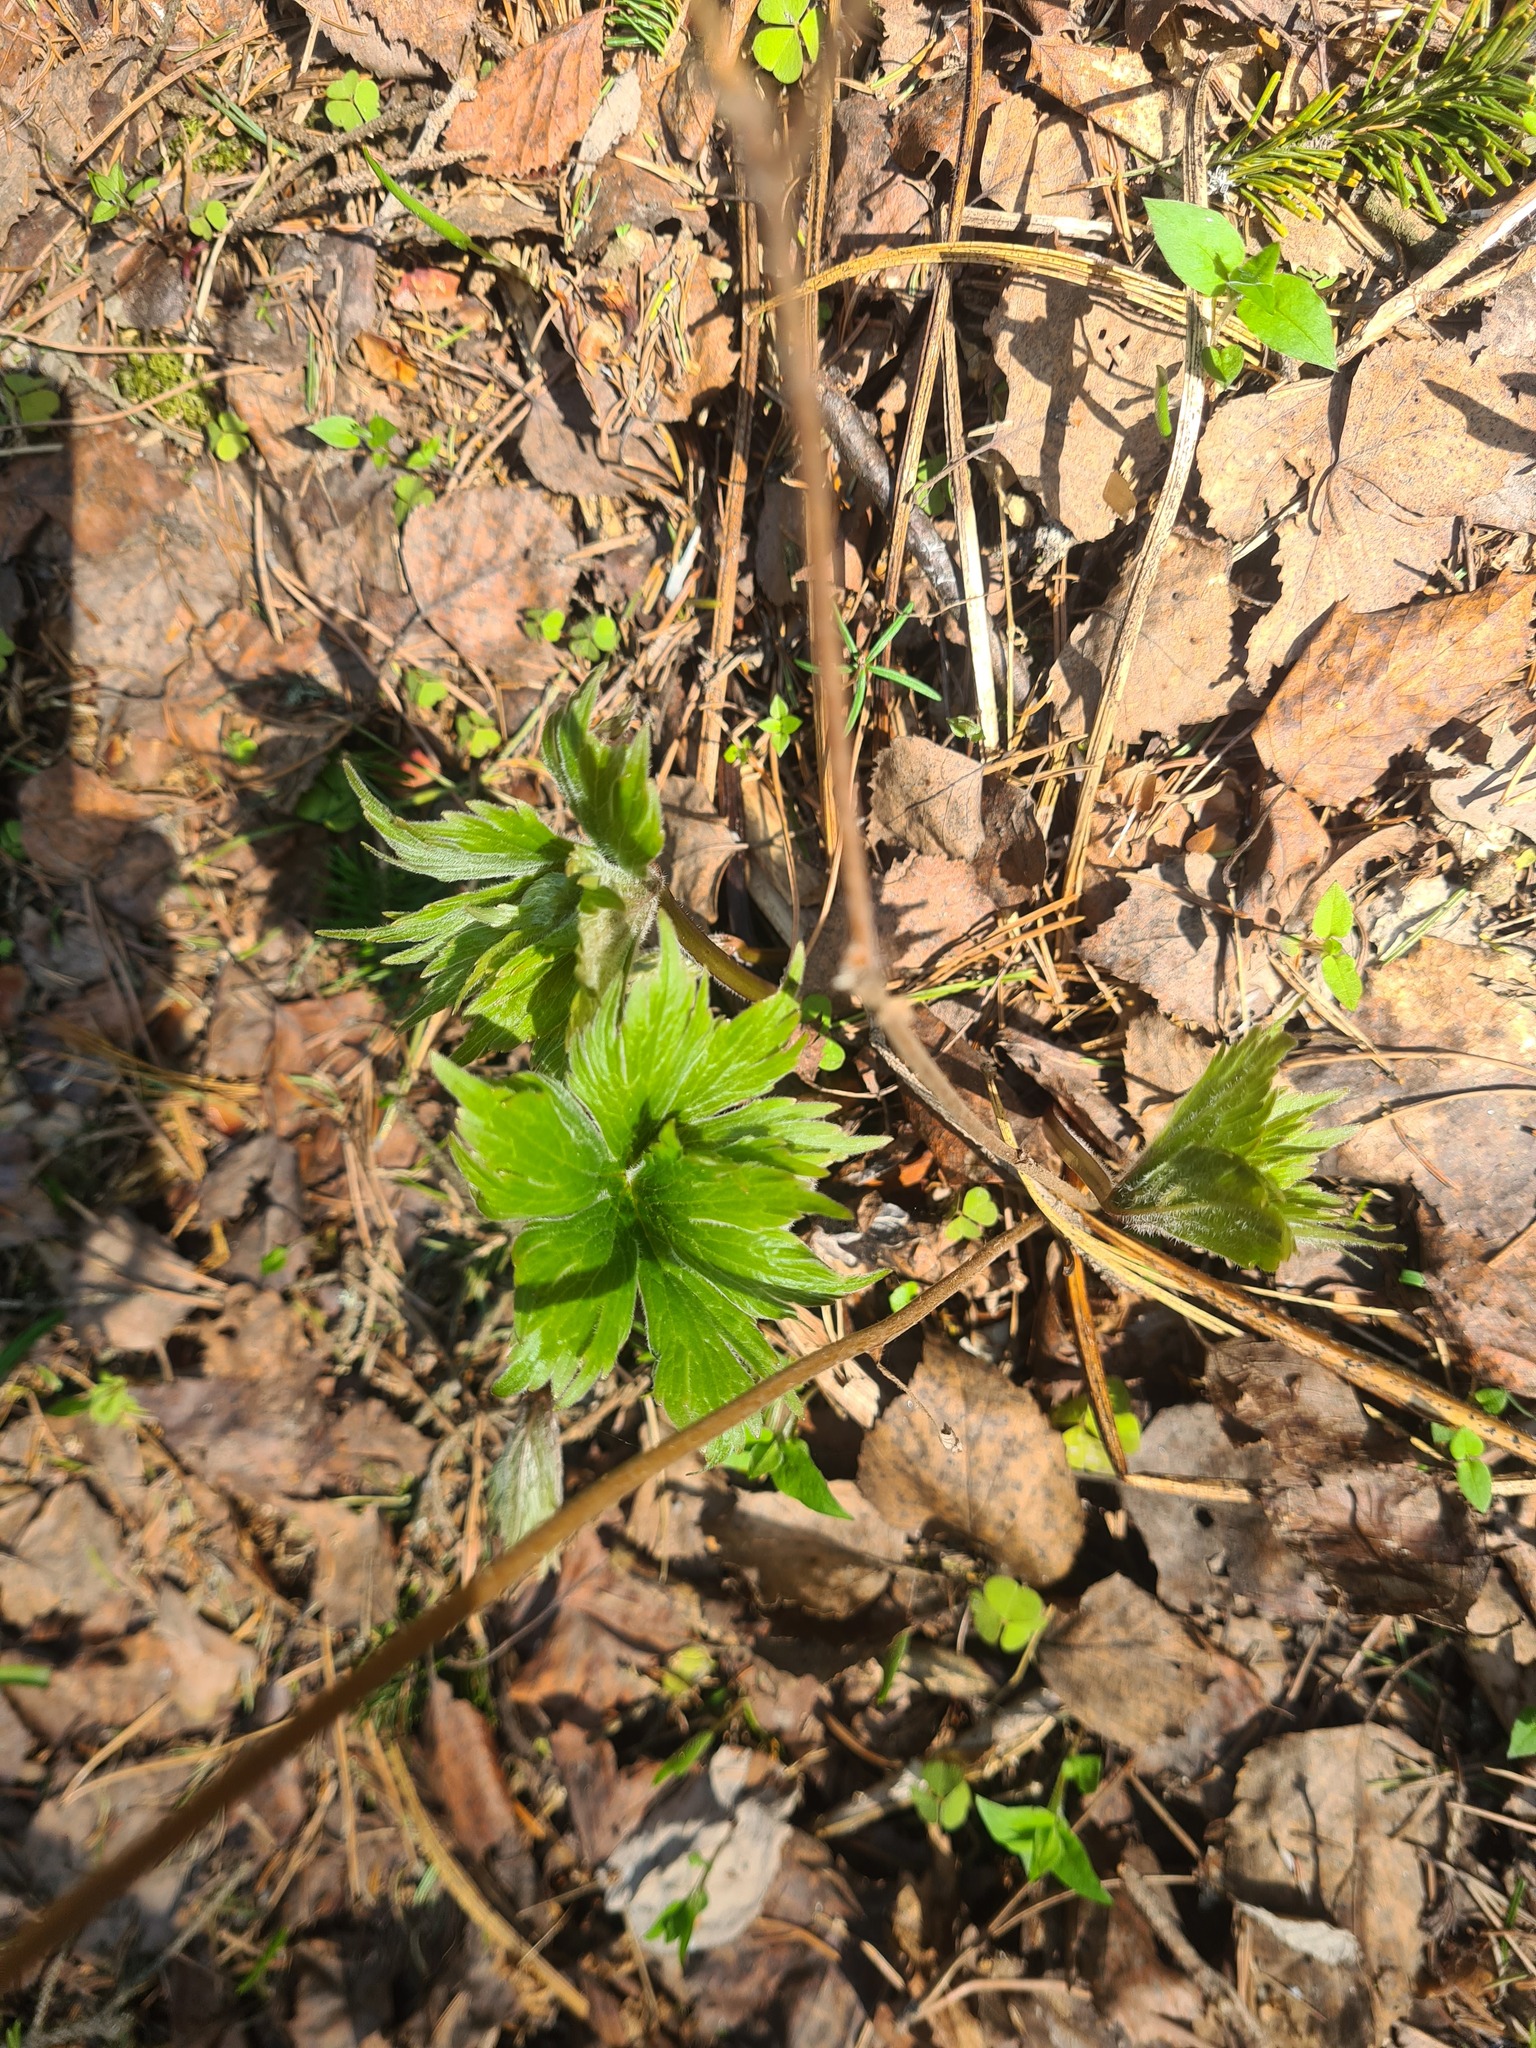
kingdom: Plantae
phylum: Tracheophyta
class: Magnoliopsida
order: Ranunculales
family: Ranunculaceae
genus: Aconitum
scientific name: Aconitum septentrionale
